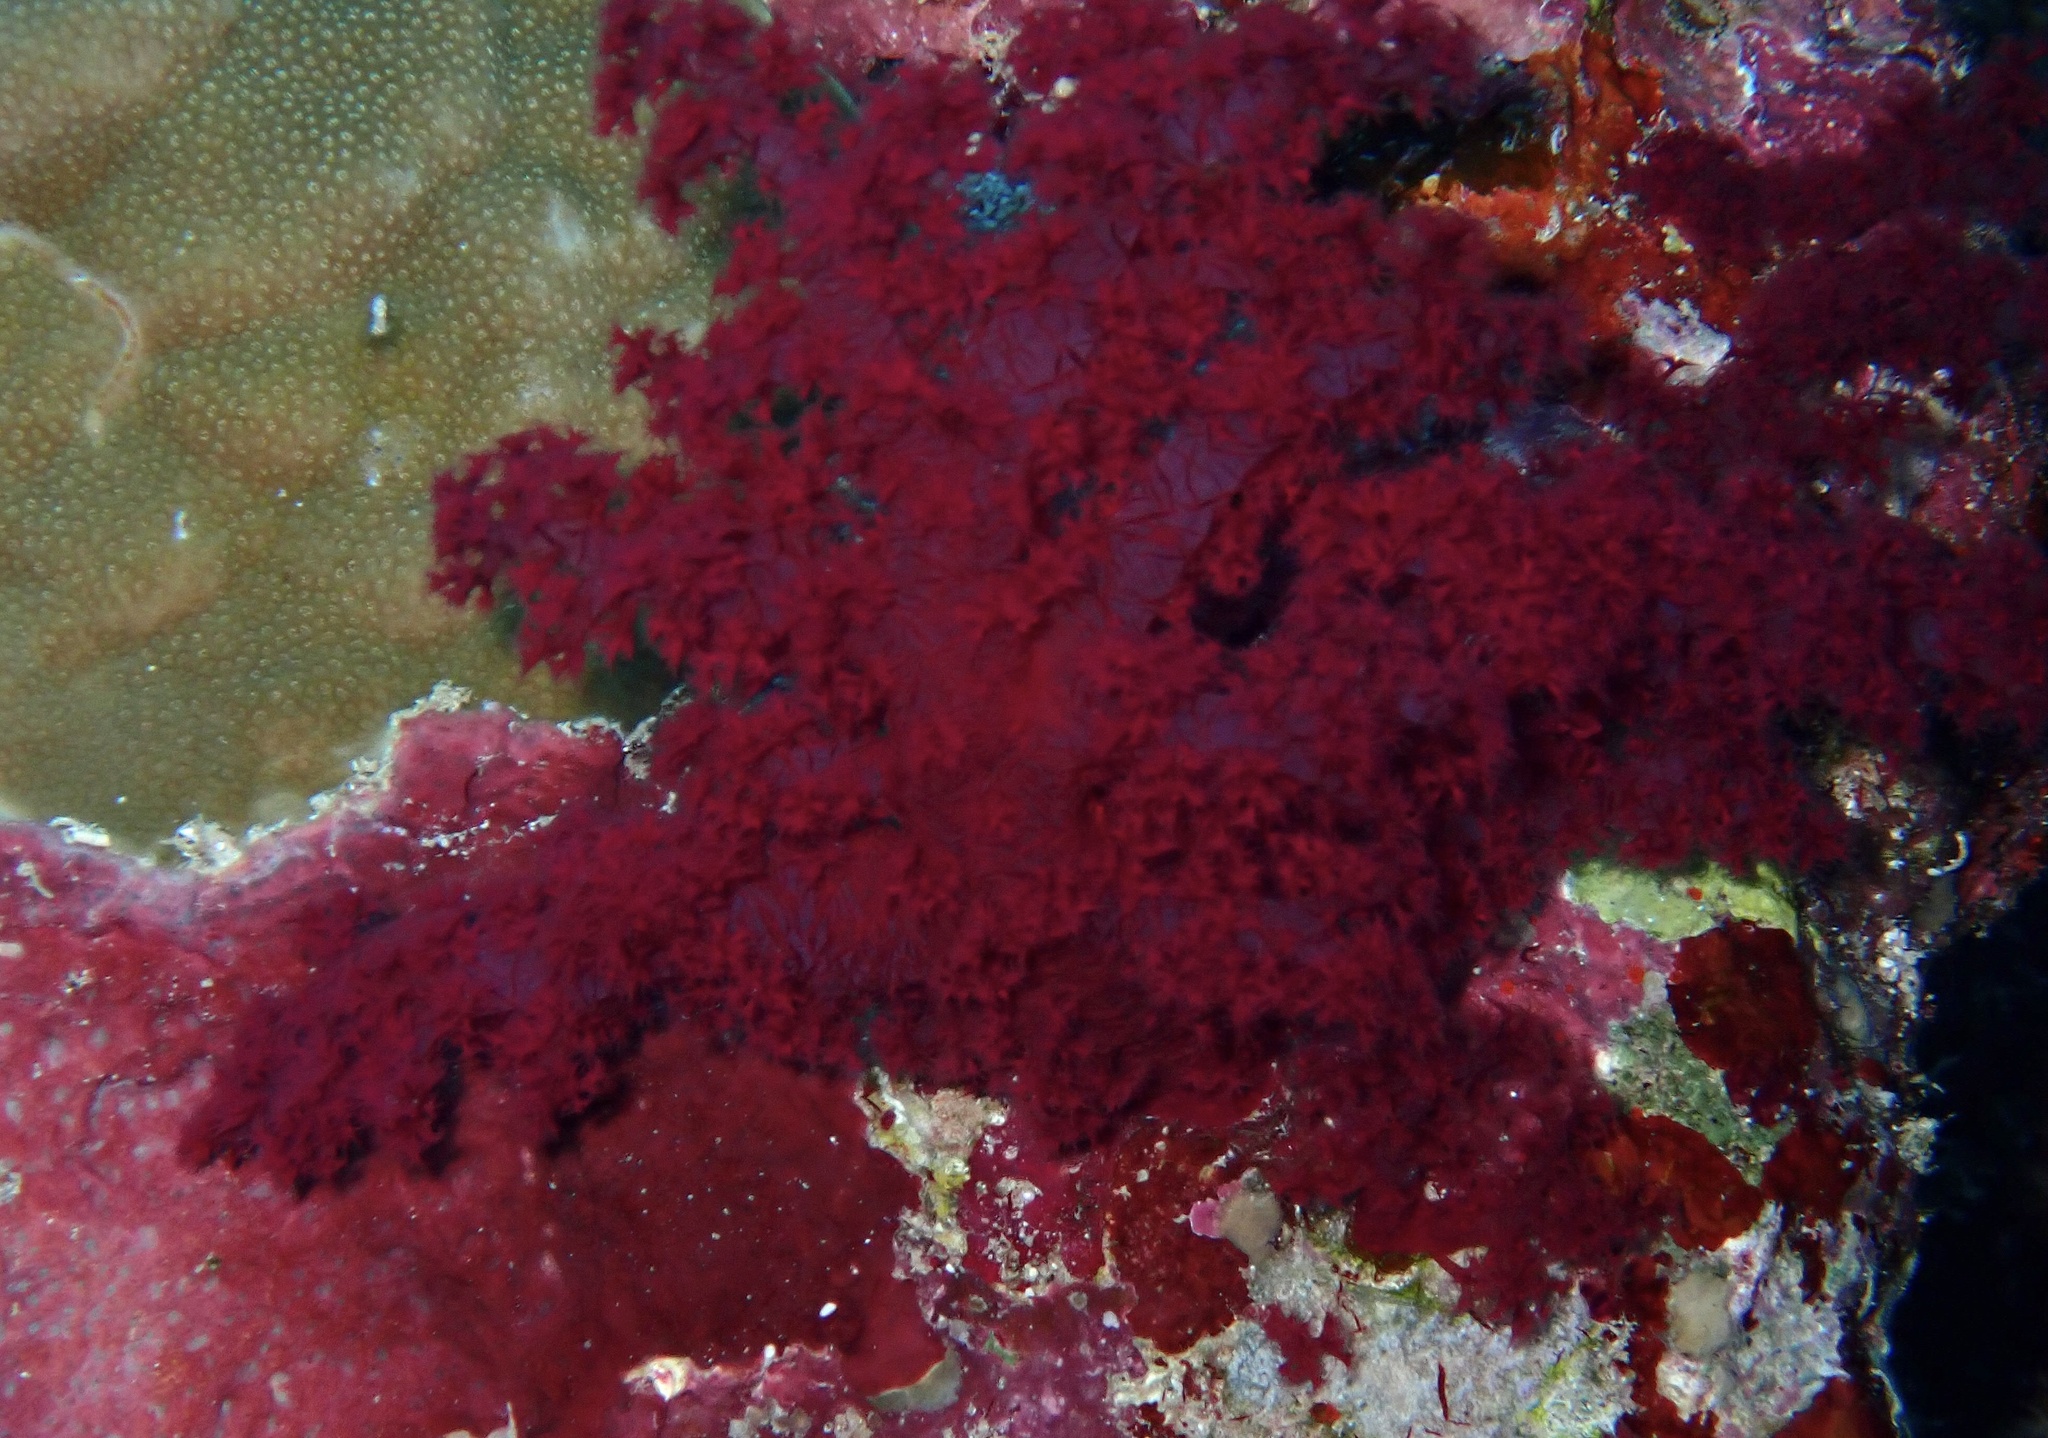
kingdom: Animalia
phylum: Cnidaria
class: Anthozoa
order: Malacalcyonacea
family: Nephtheidae
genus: Dendronephthya
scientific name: Dendronephthya hemprichi
